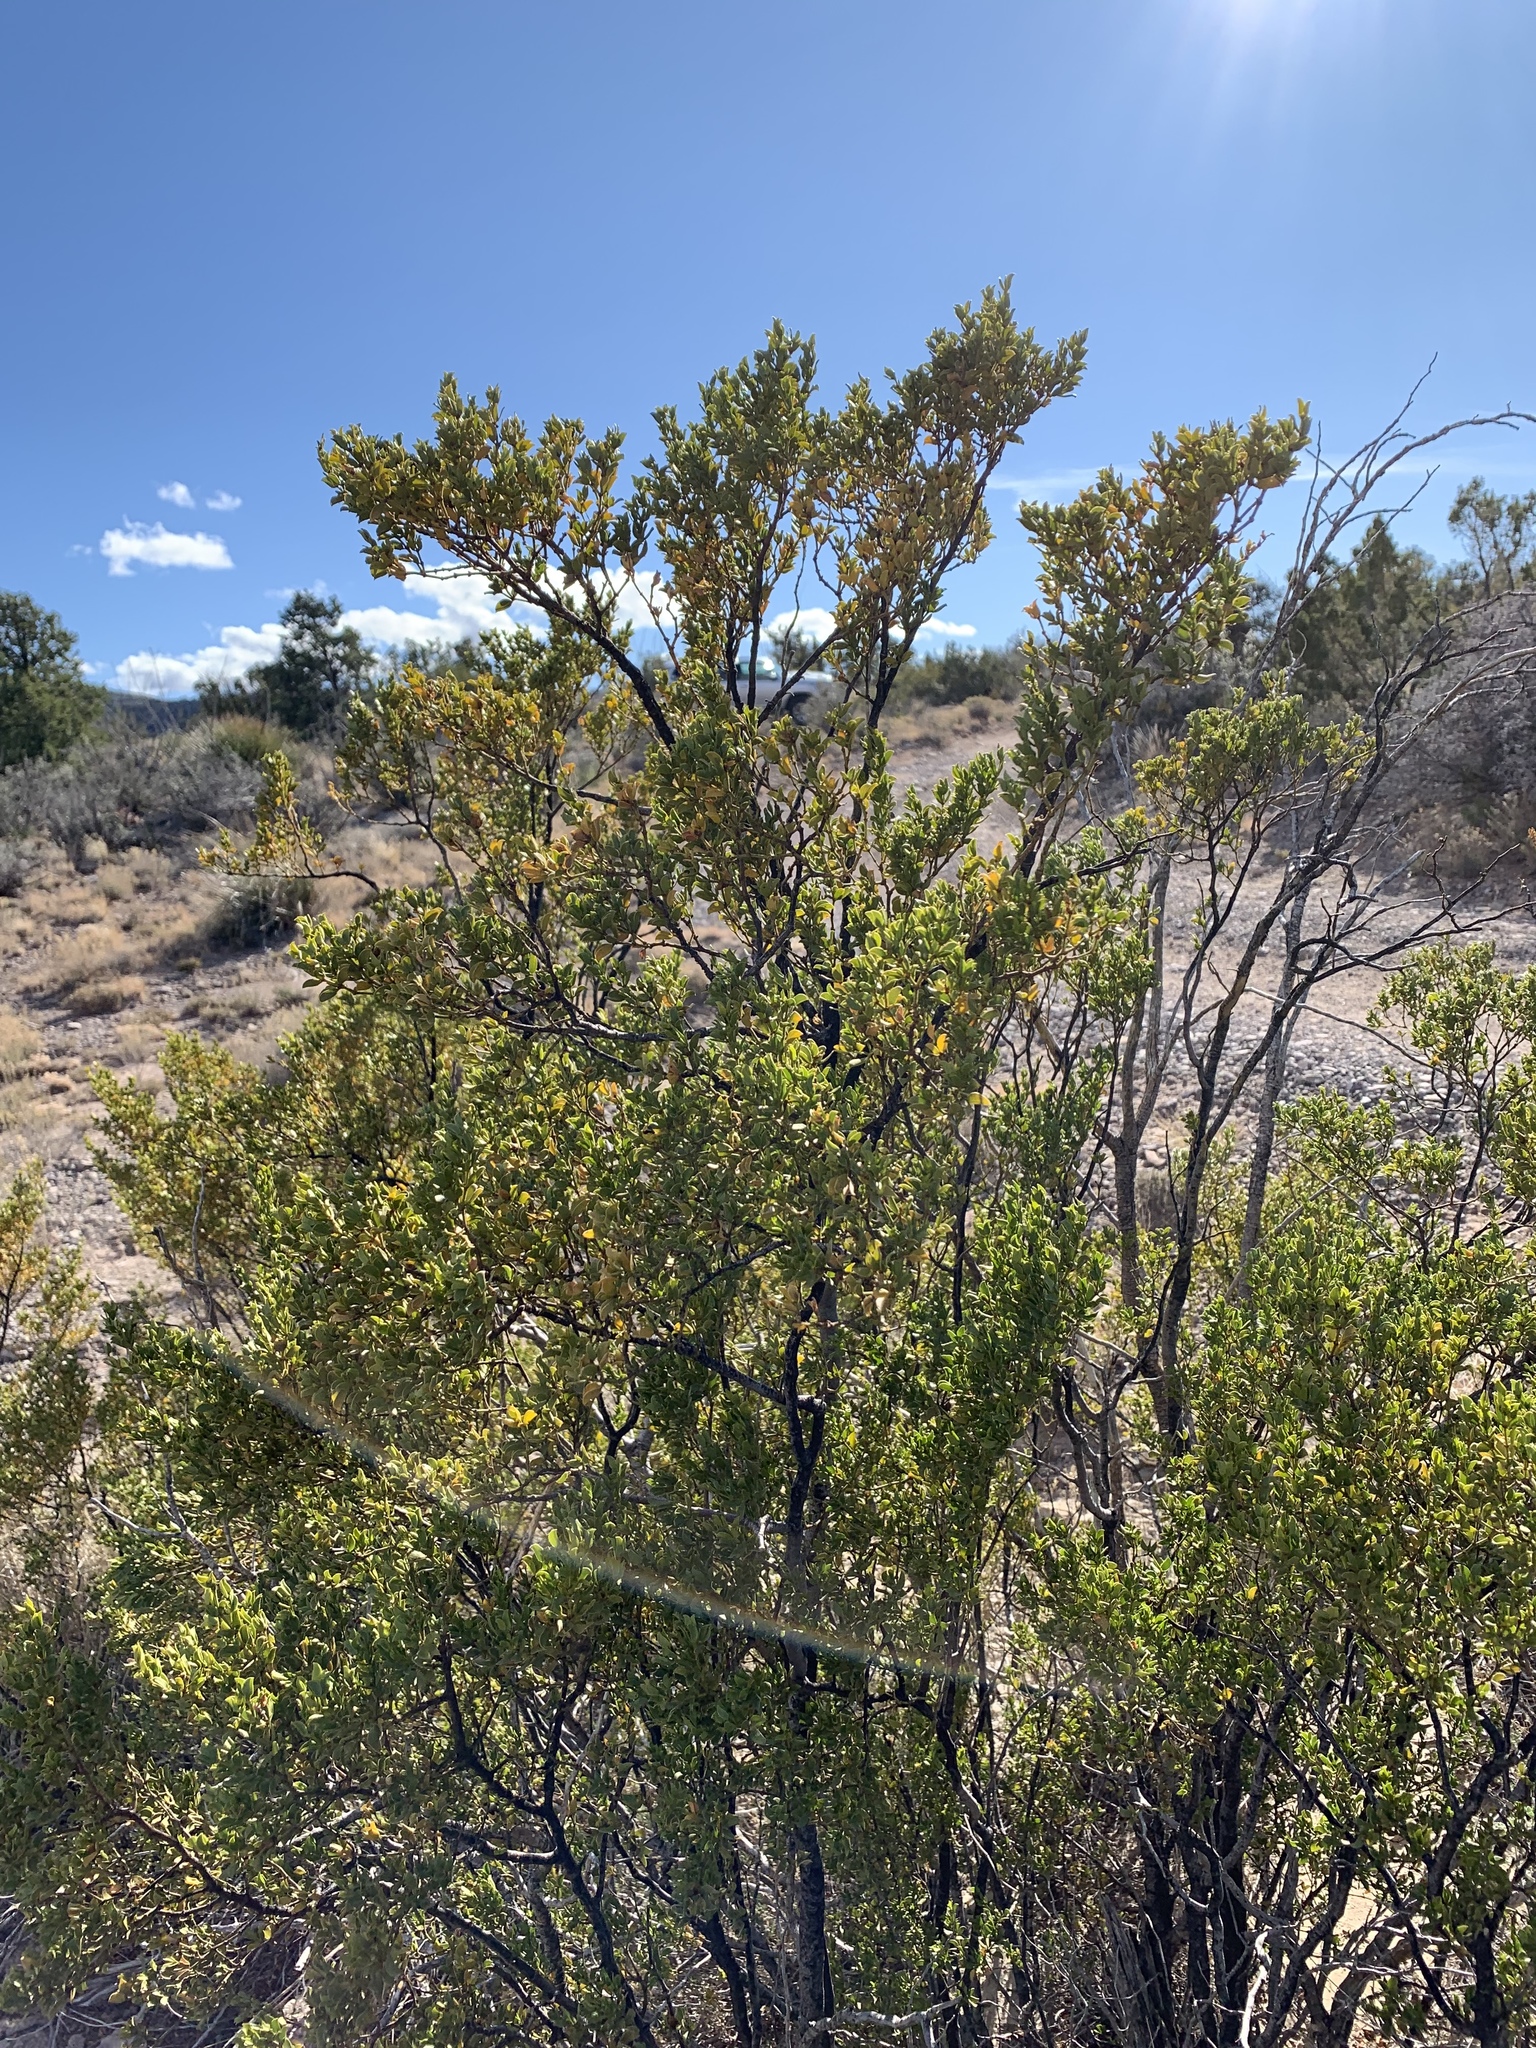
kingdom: Plantae
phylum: Tracheophyta
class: Magnoliopsida
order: Zygophyllales
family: Zygophyllaceae
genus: Larrea
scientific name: Larrea tridentata
